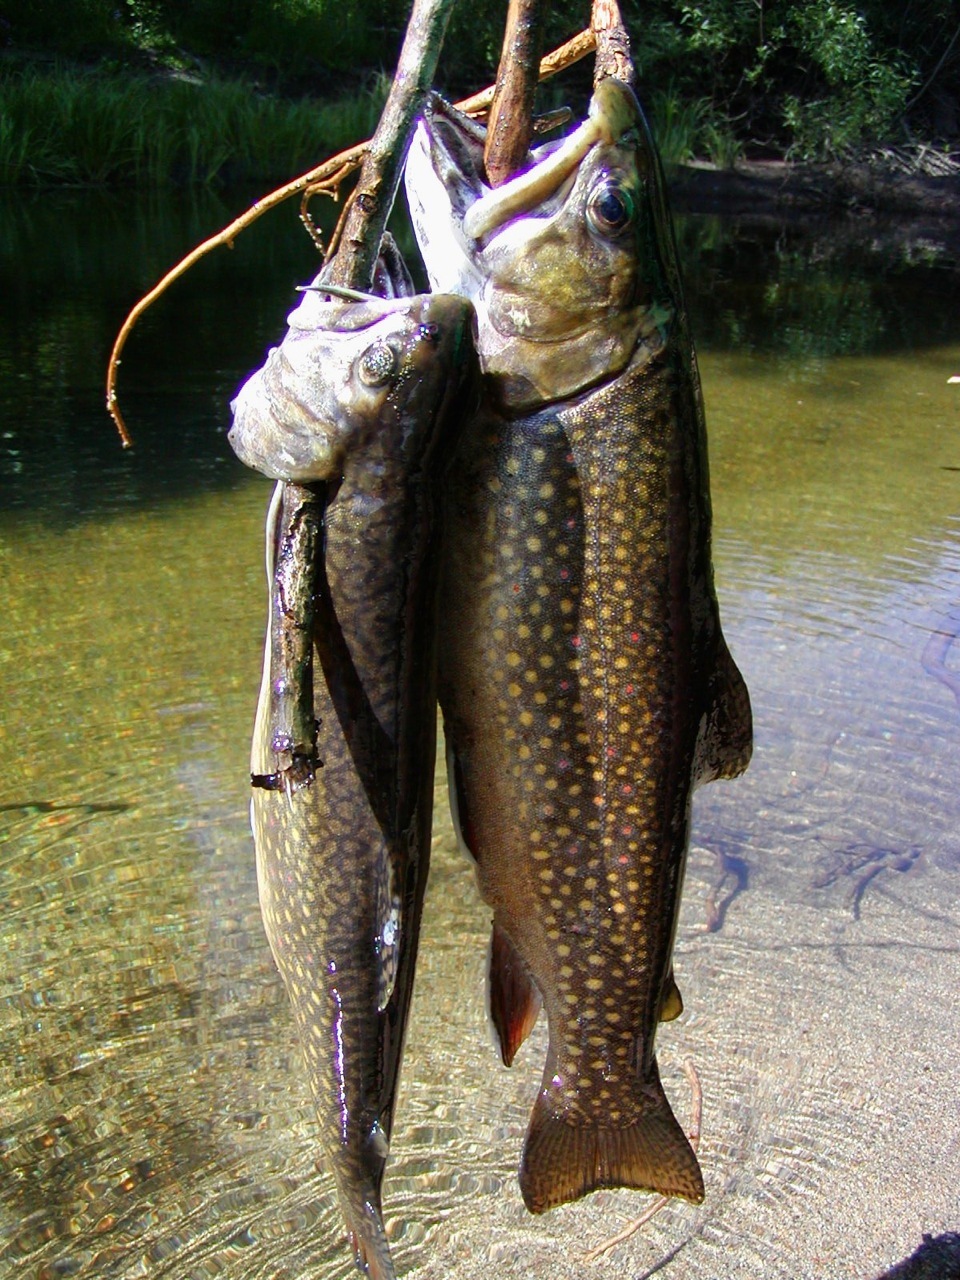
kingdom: Animalia
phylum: Chordata
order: Salmoniformes
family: Salmonidae
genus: Salvelinus
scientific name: Salvelinus fontinalis
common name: Brook trout
